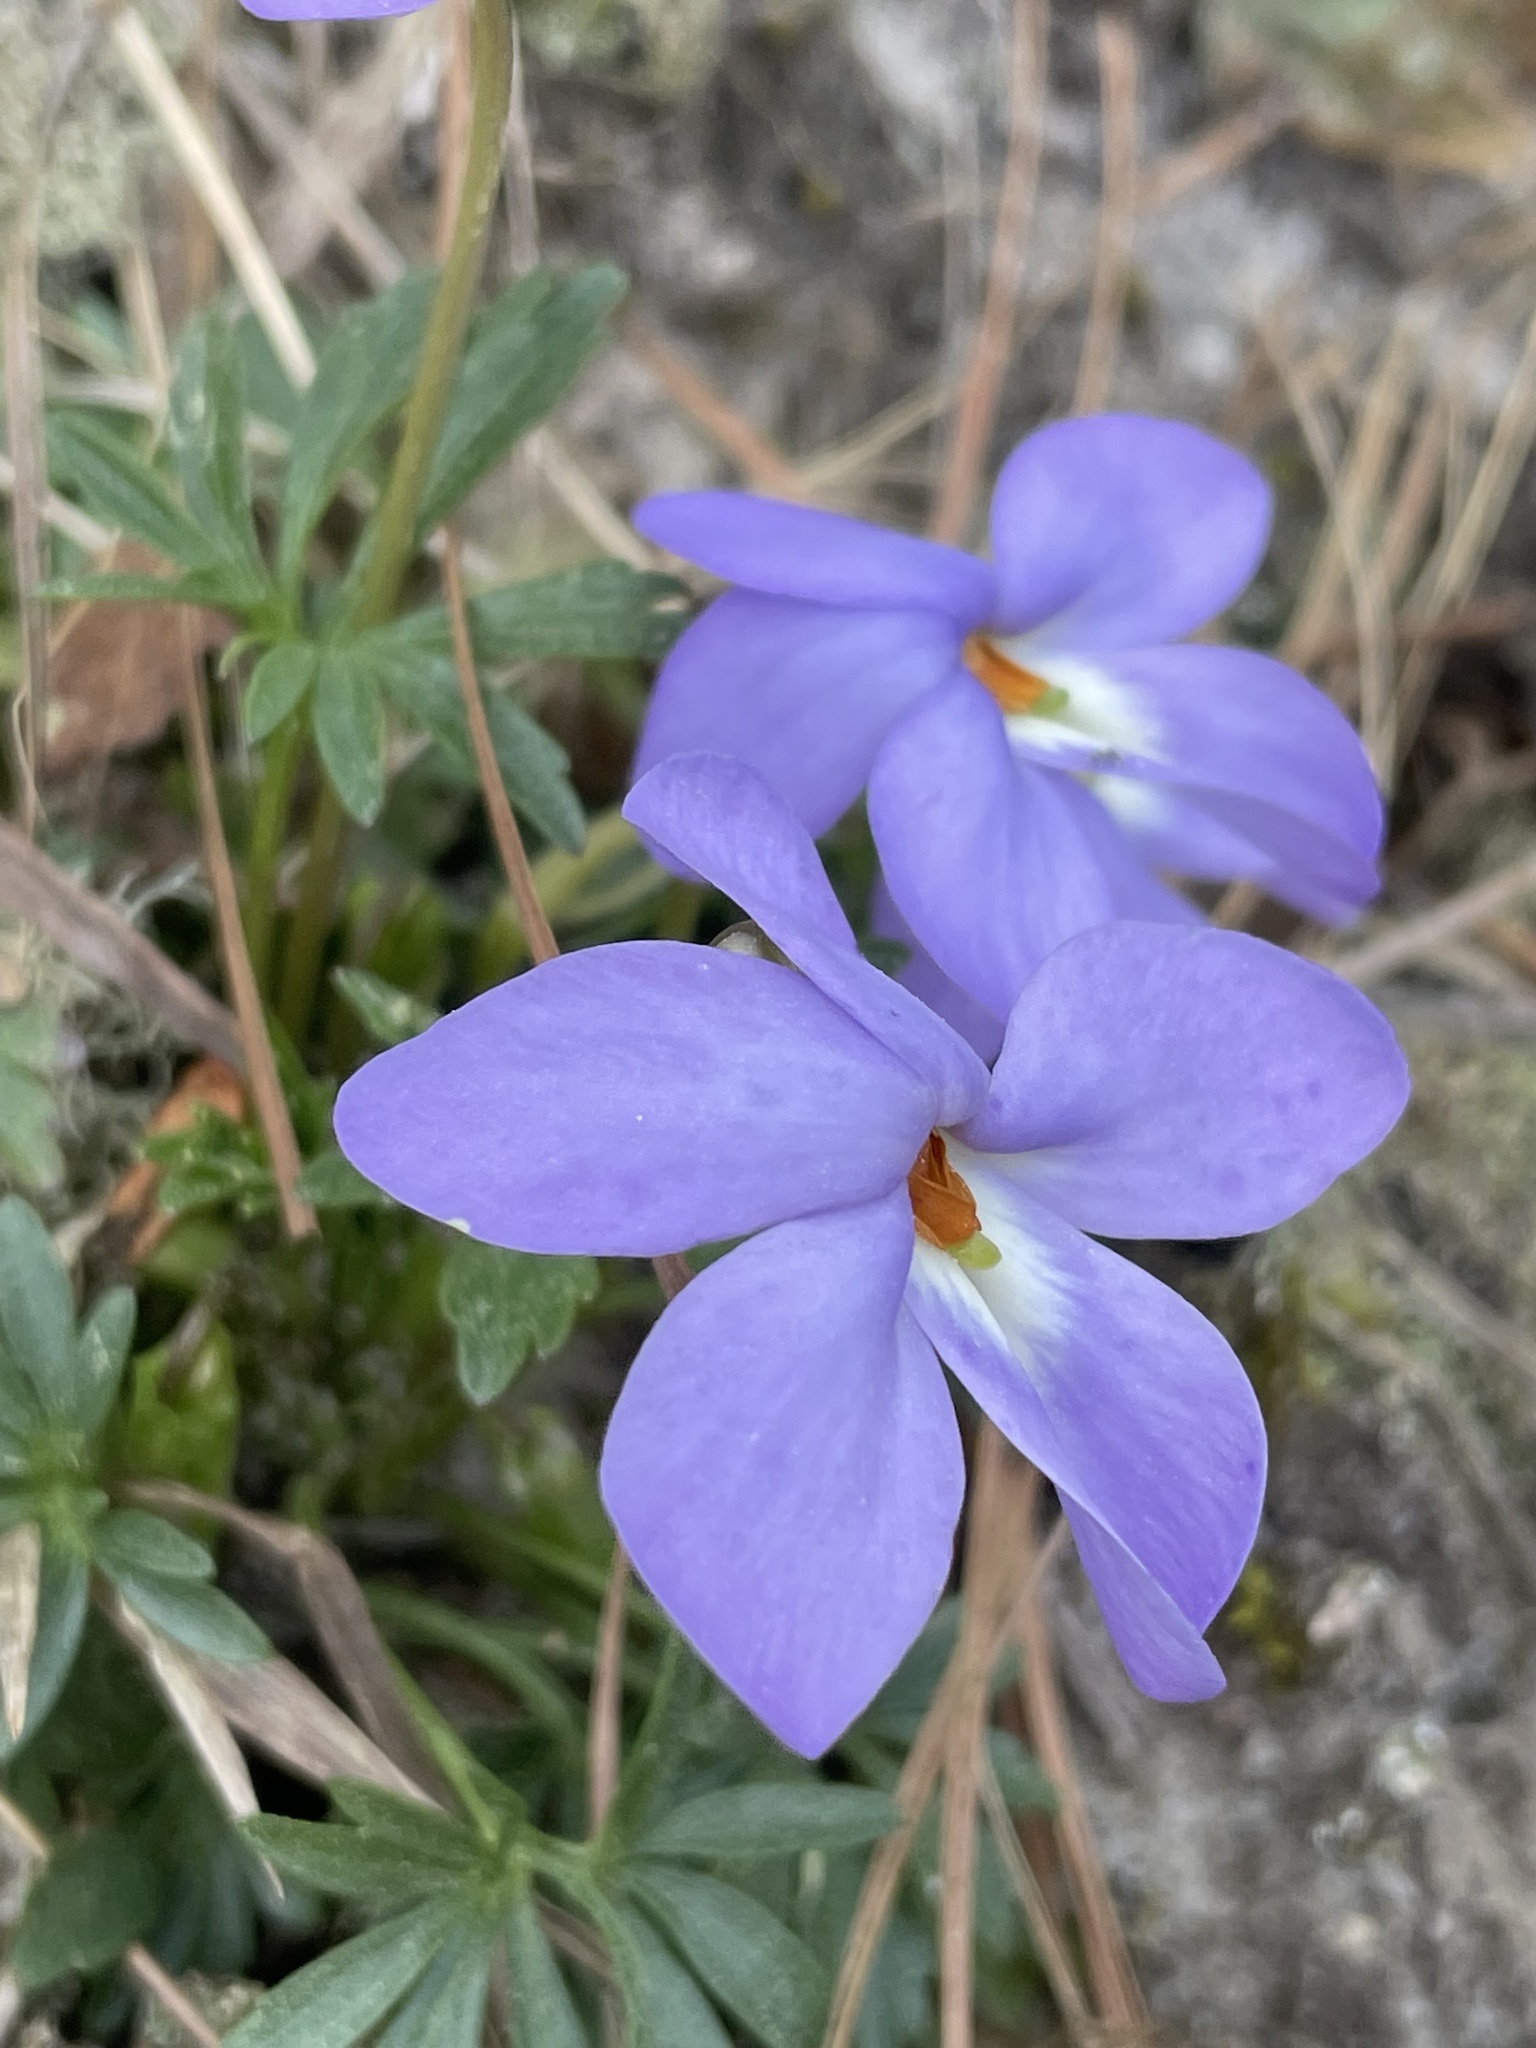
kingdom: Plantae
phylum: Tracheophyta
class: Magnoliopsida
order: Malpighiales
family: Violaceae
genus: Viola
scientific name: Viola pedata
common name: Pansy violet
